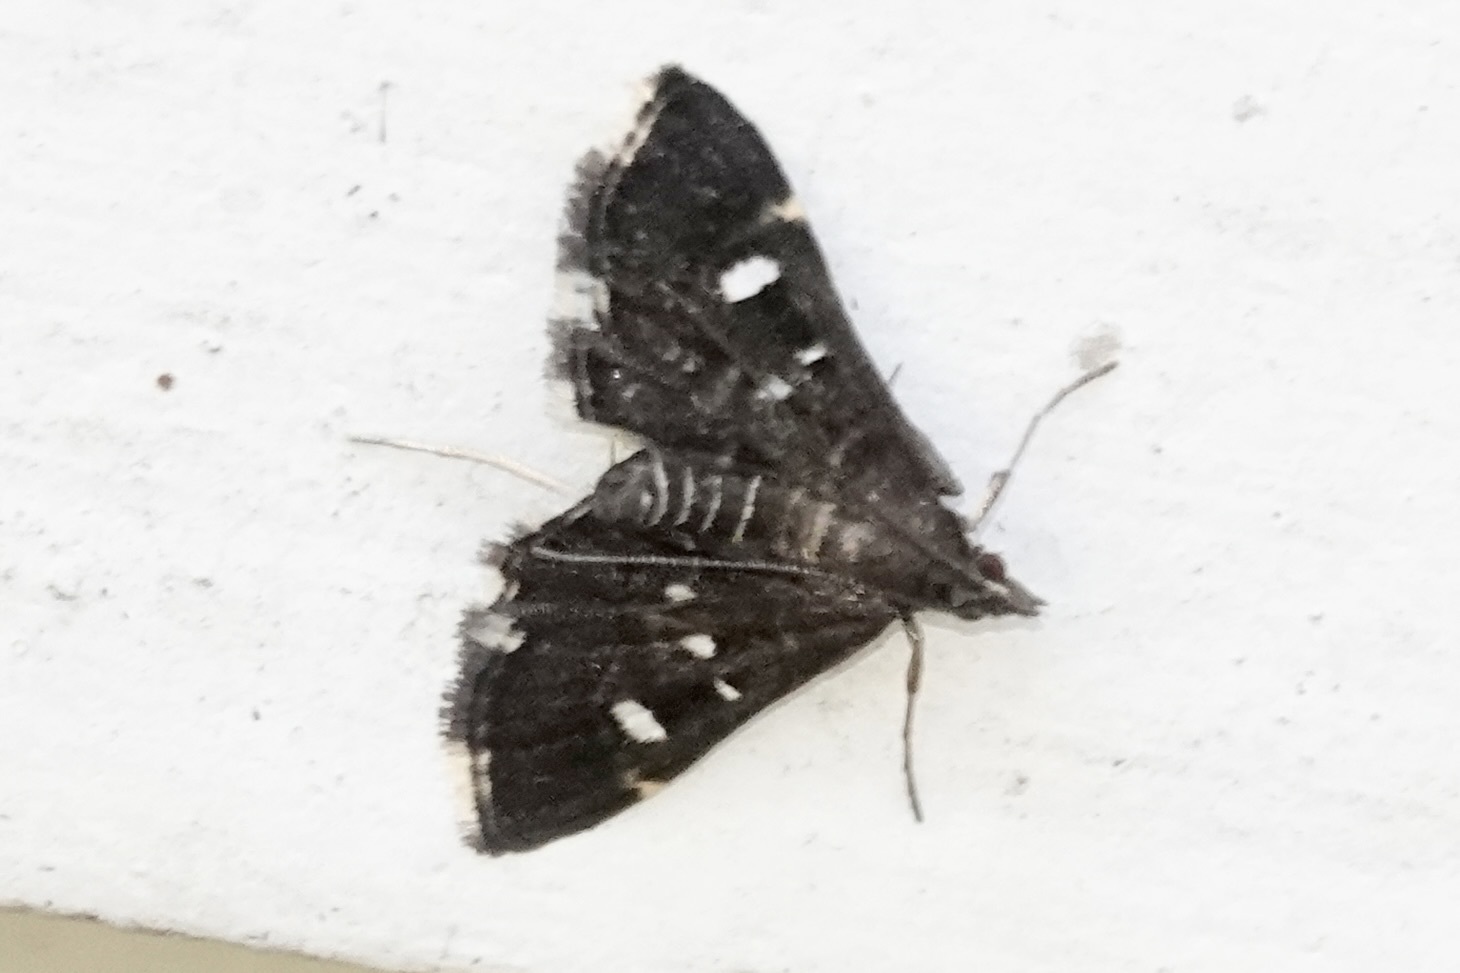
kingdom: Animalia
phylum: Arthropoda
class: Insecta
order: Lepidoptera
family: Crambidae
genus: Diathrausta
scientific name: Diathrausta
